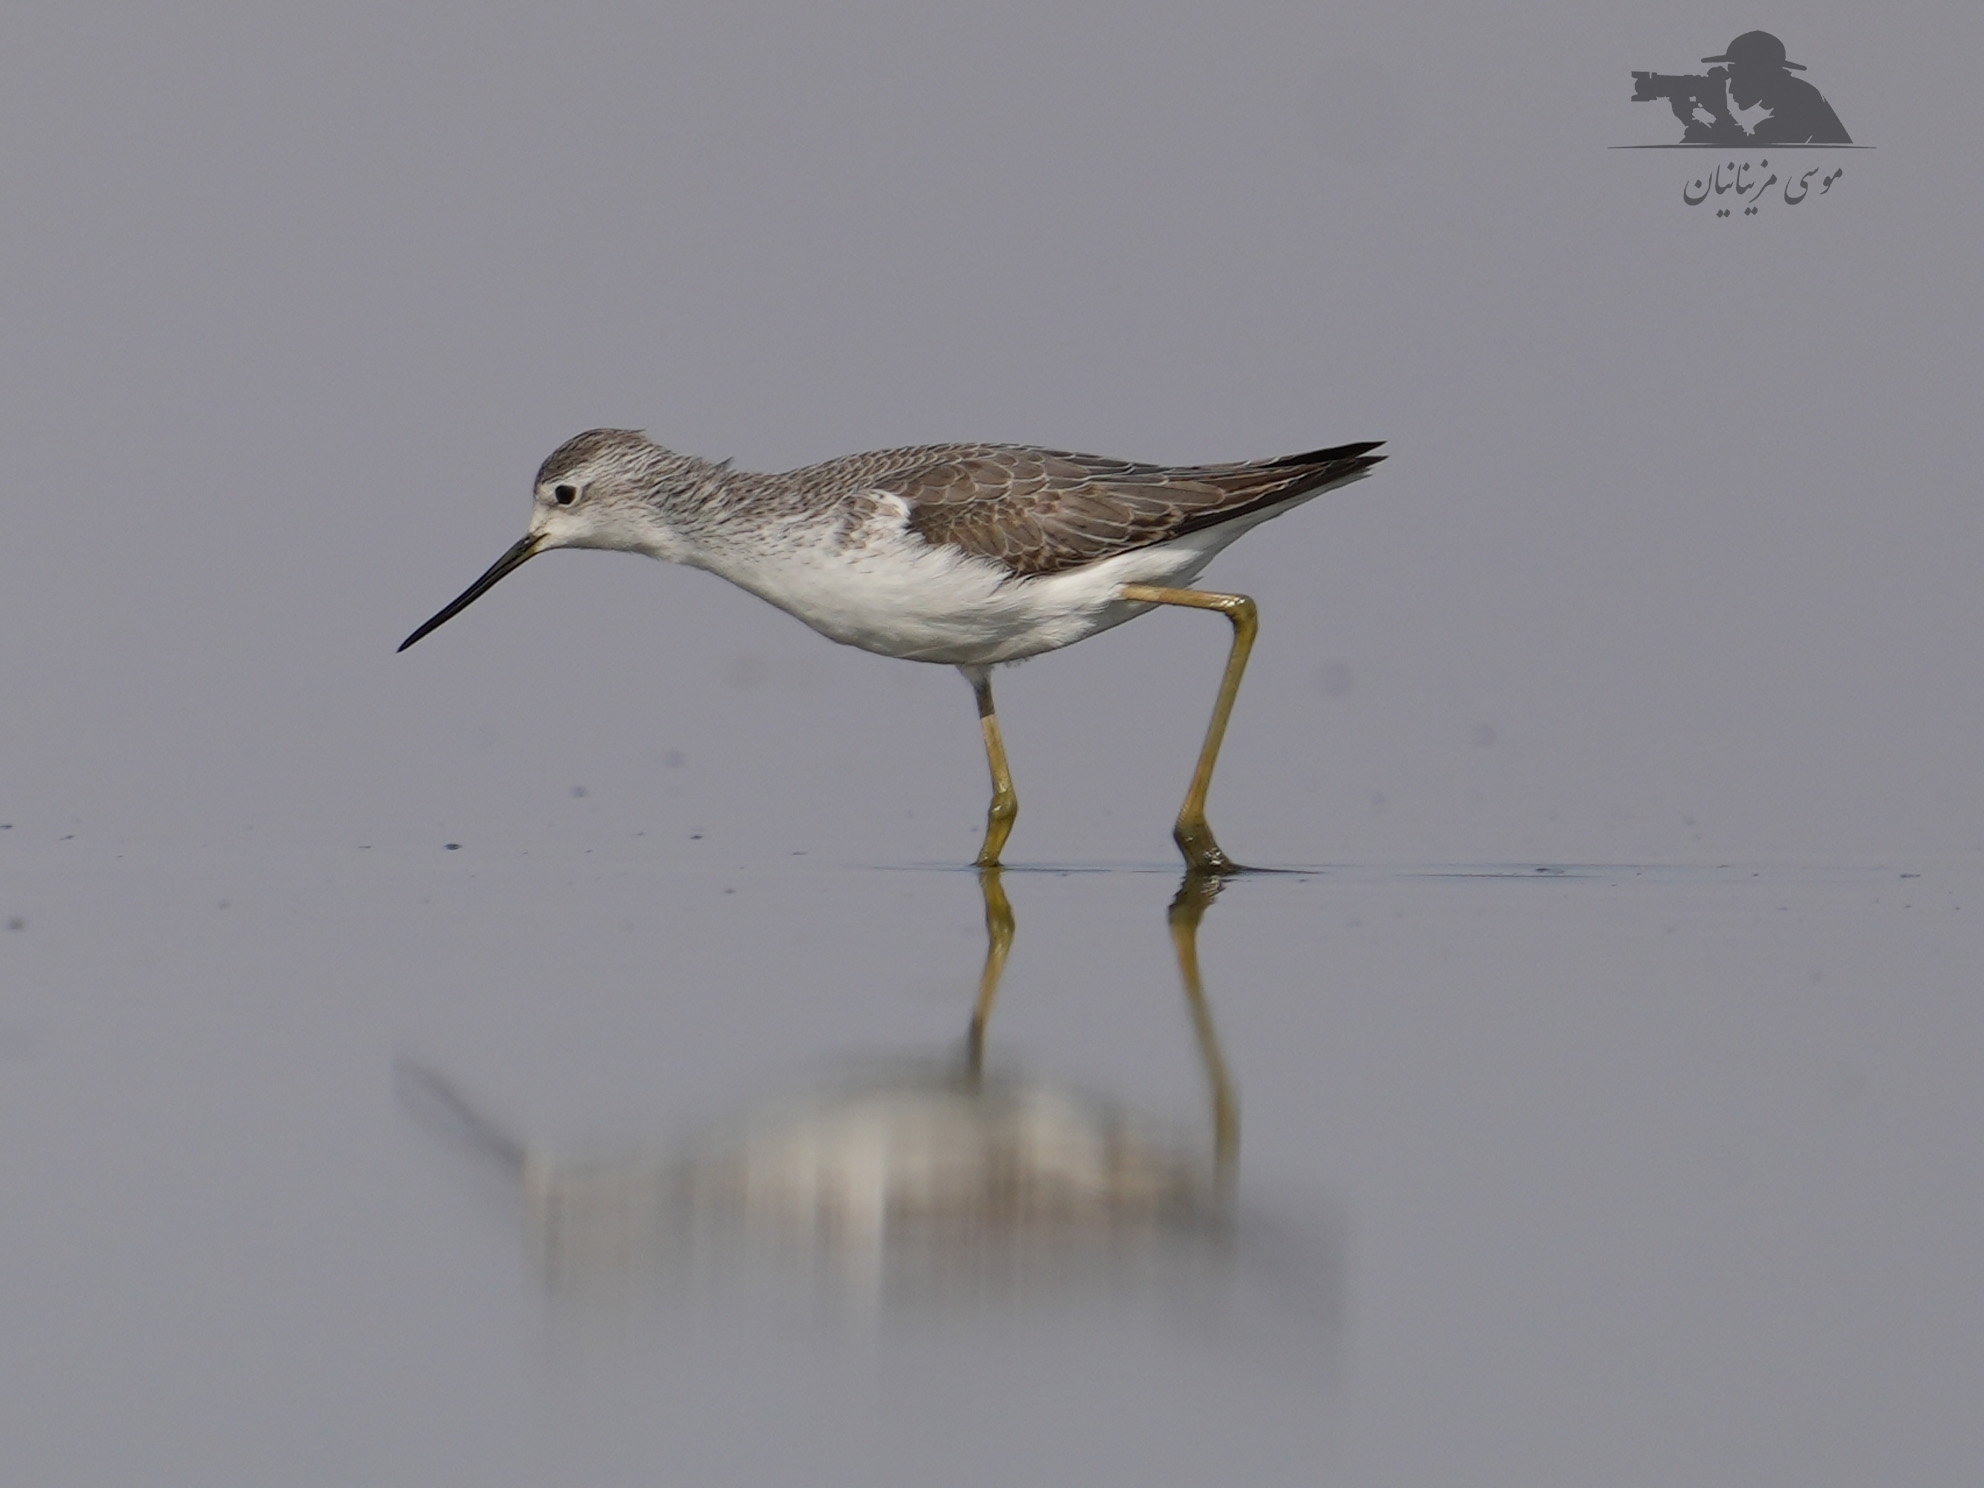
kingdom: Animalia
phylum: Chordata
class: Aves
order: Charadriiformes
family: Scolopacidae
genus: Tringa
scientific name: Tringa stagnatilis
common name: Marsh sandpiper
